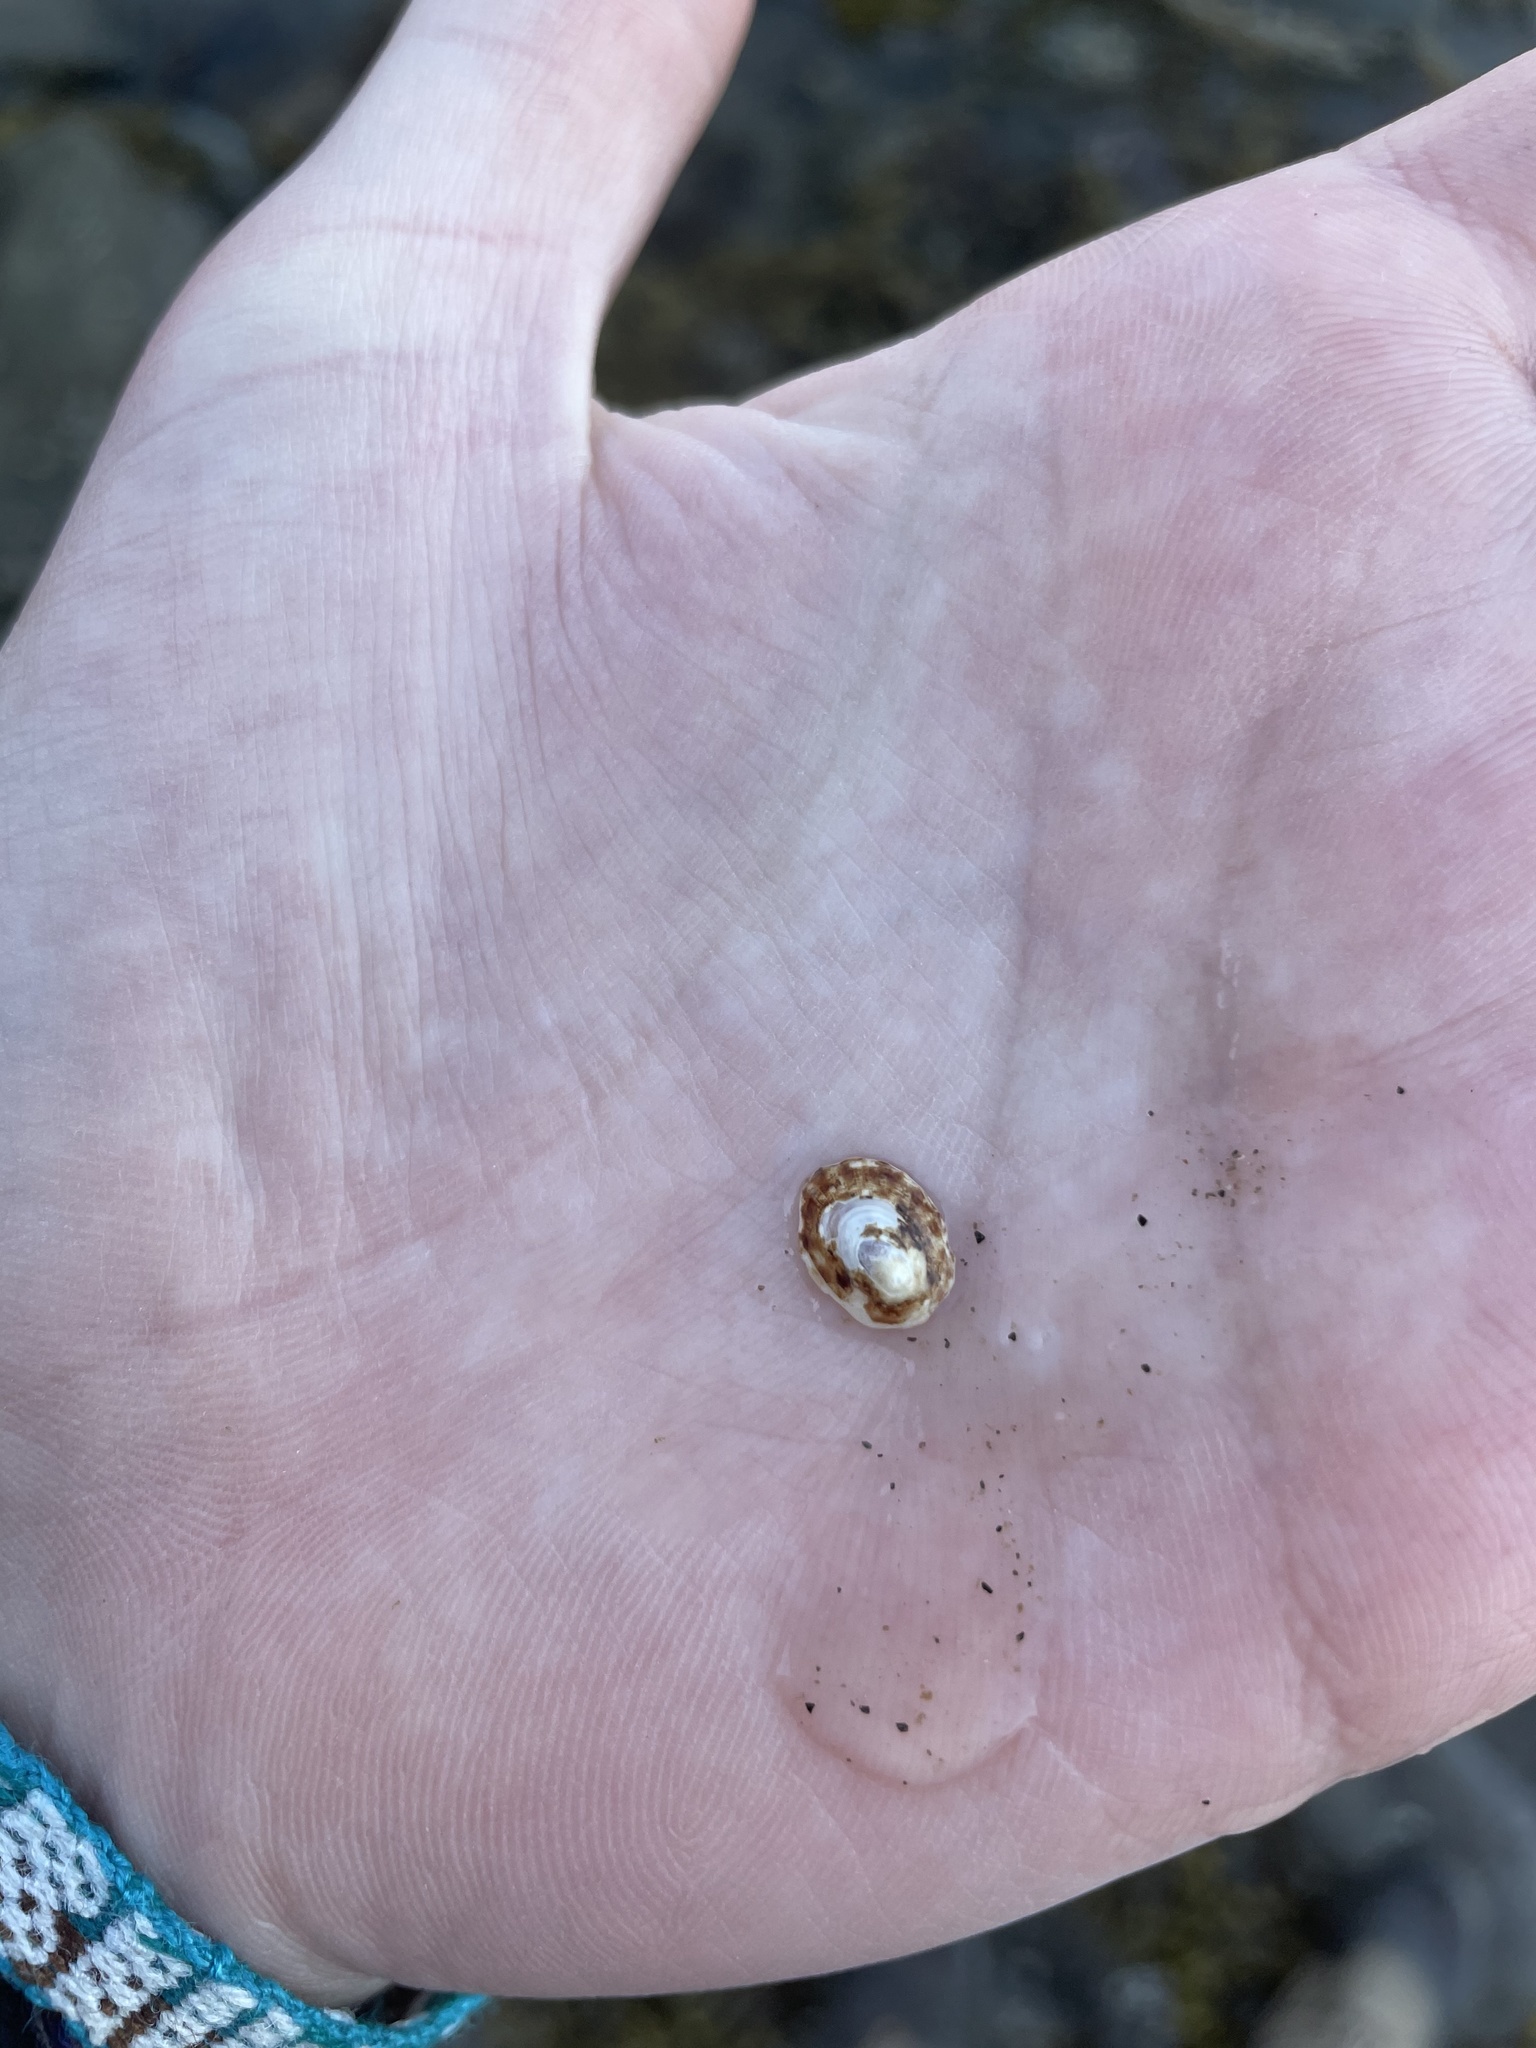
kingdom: Animalia
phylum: Mollusca
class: Gastropoda
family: Lottiidae
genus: Testudinalia
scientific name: Testudinalia testudinalis
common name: Common tortoiseshell limpet
